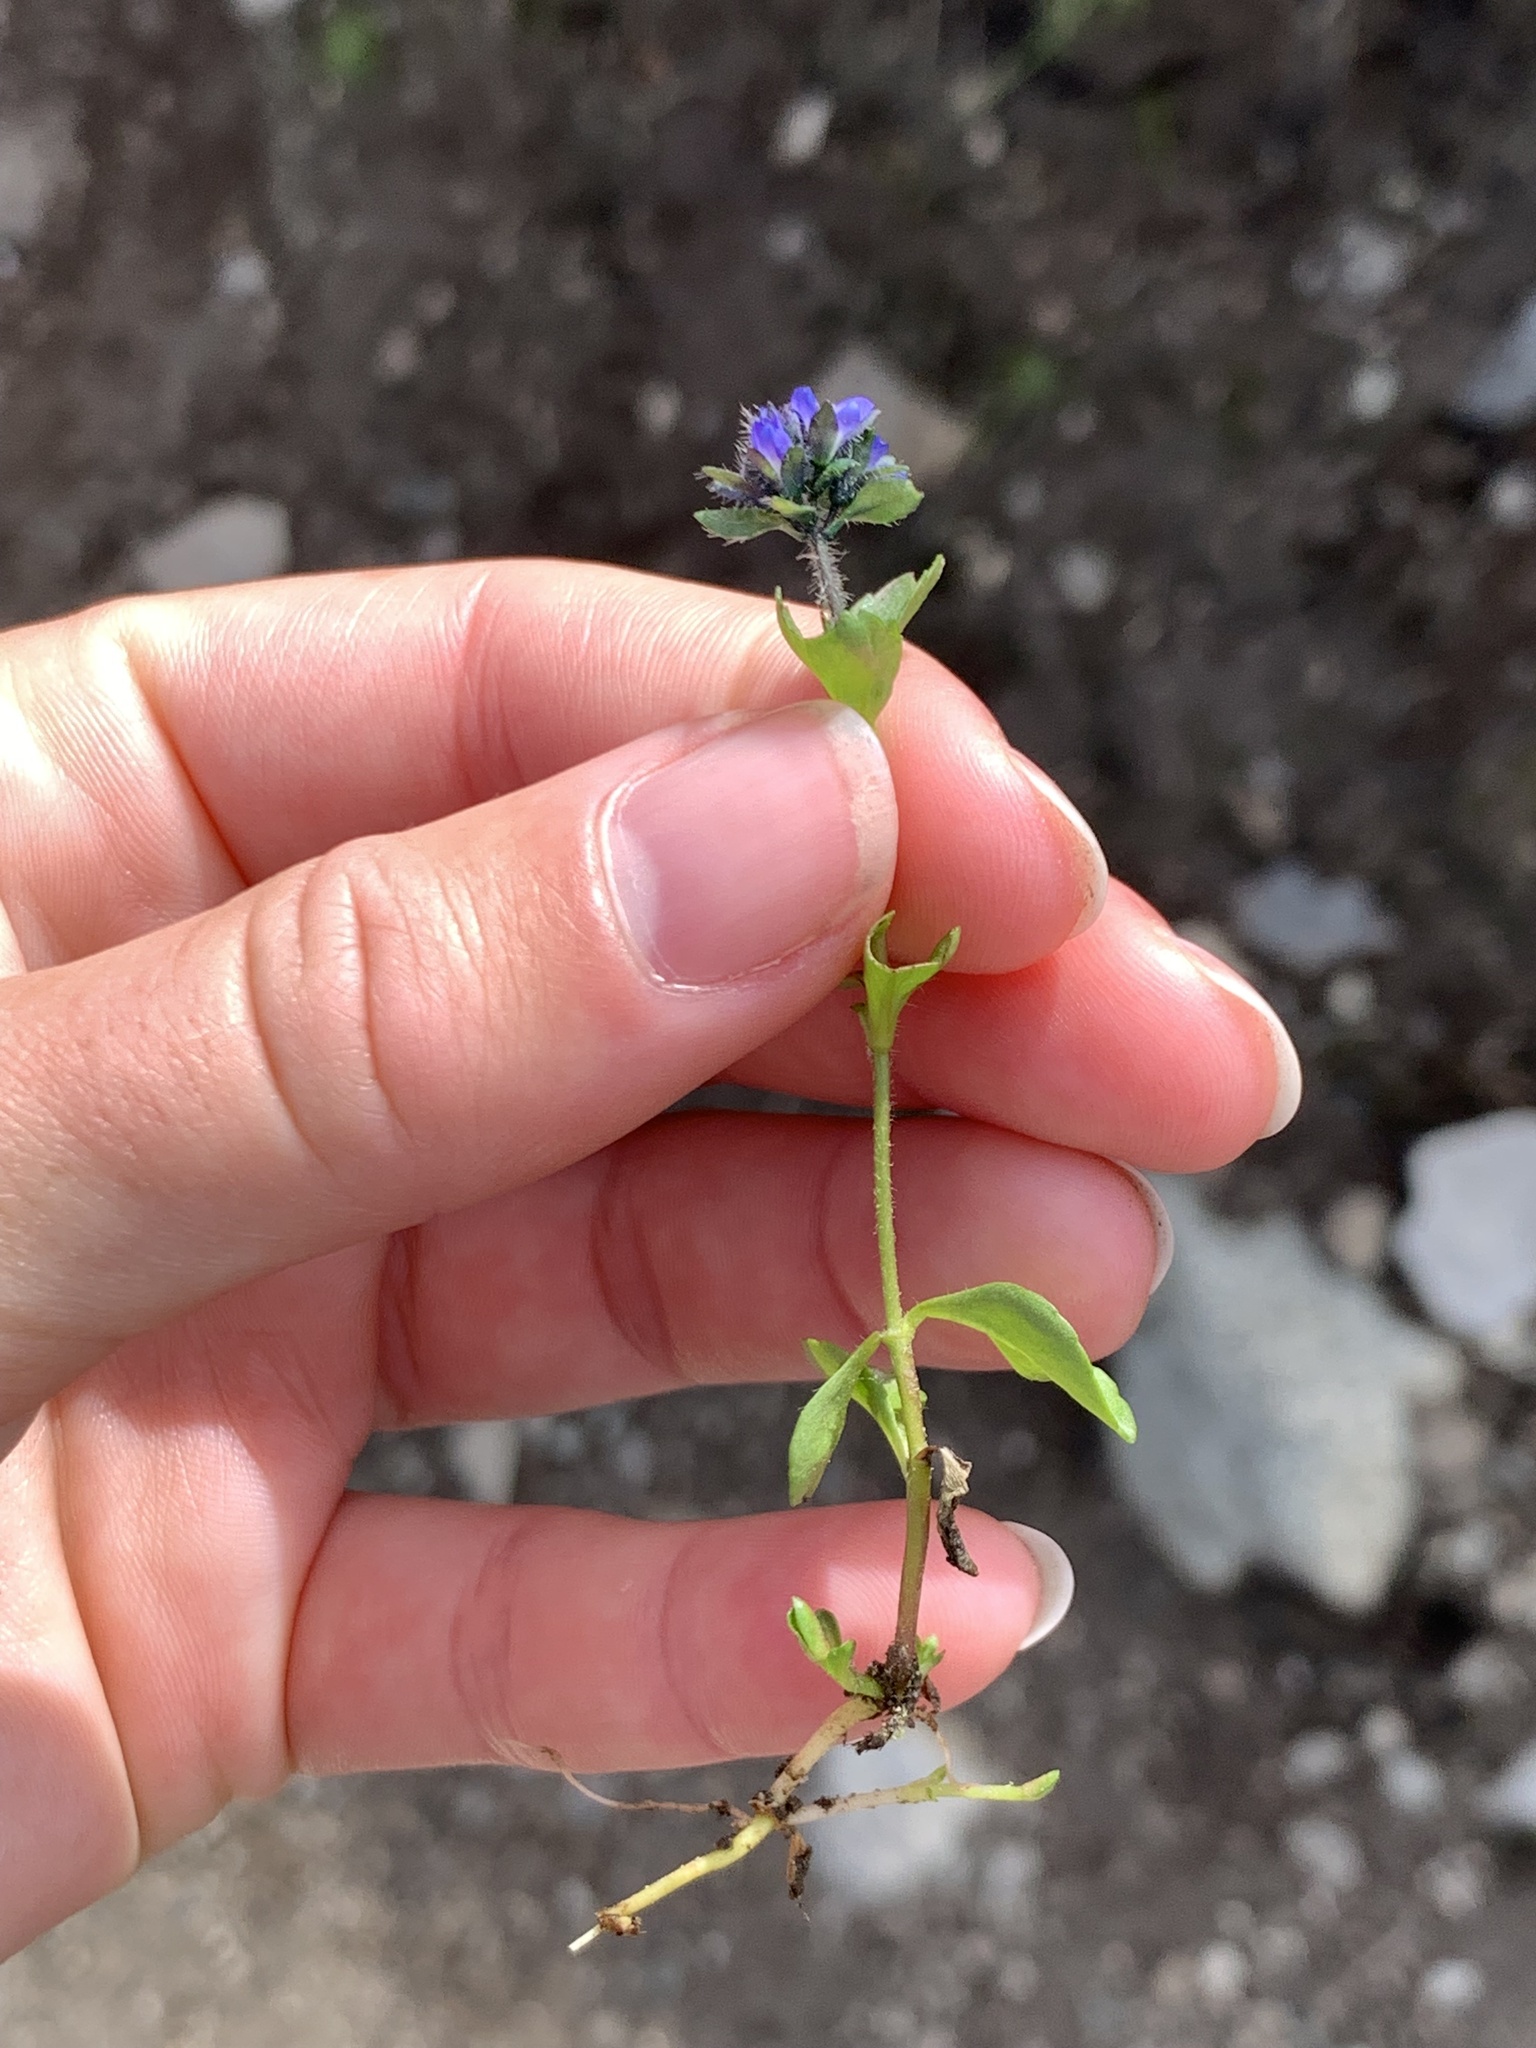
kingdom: Plantae
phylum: Tracheophyta
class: Magnoliopsida
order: Lamiales
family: Plantaginaceae
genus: Veronica
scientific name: Veronica alpina
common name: Alpine speedwell
